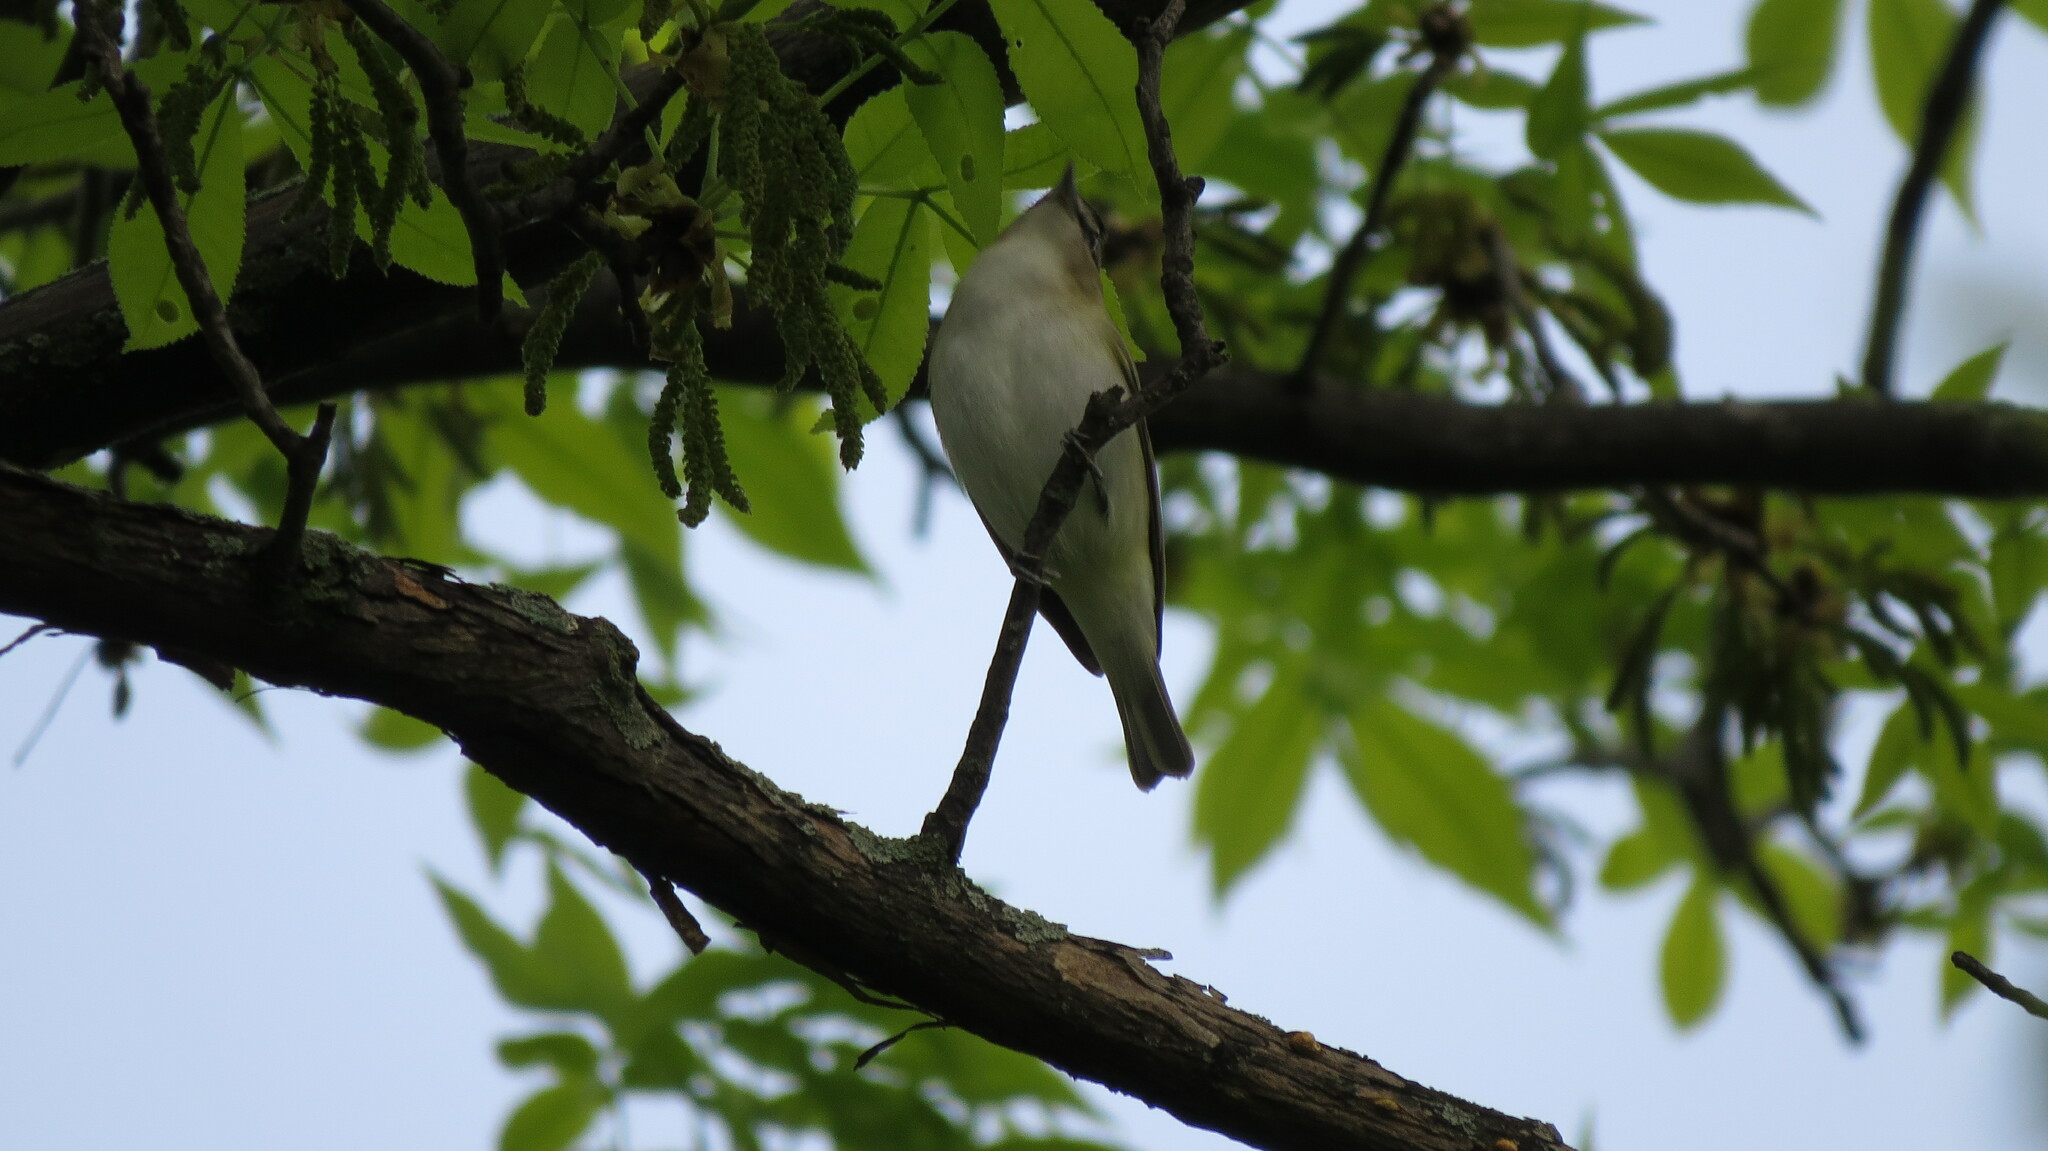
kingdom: Animalia
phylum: Chordata
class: Aves
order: Passeriformes
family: Vireonidae
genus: Vireo
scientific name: Vireo olivaceus
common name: Red-eyed vireo
